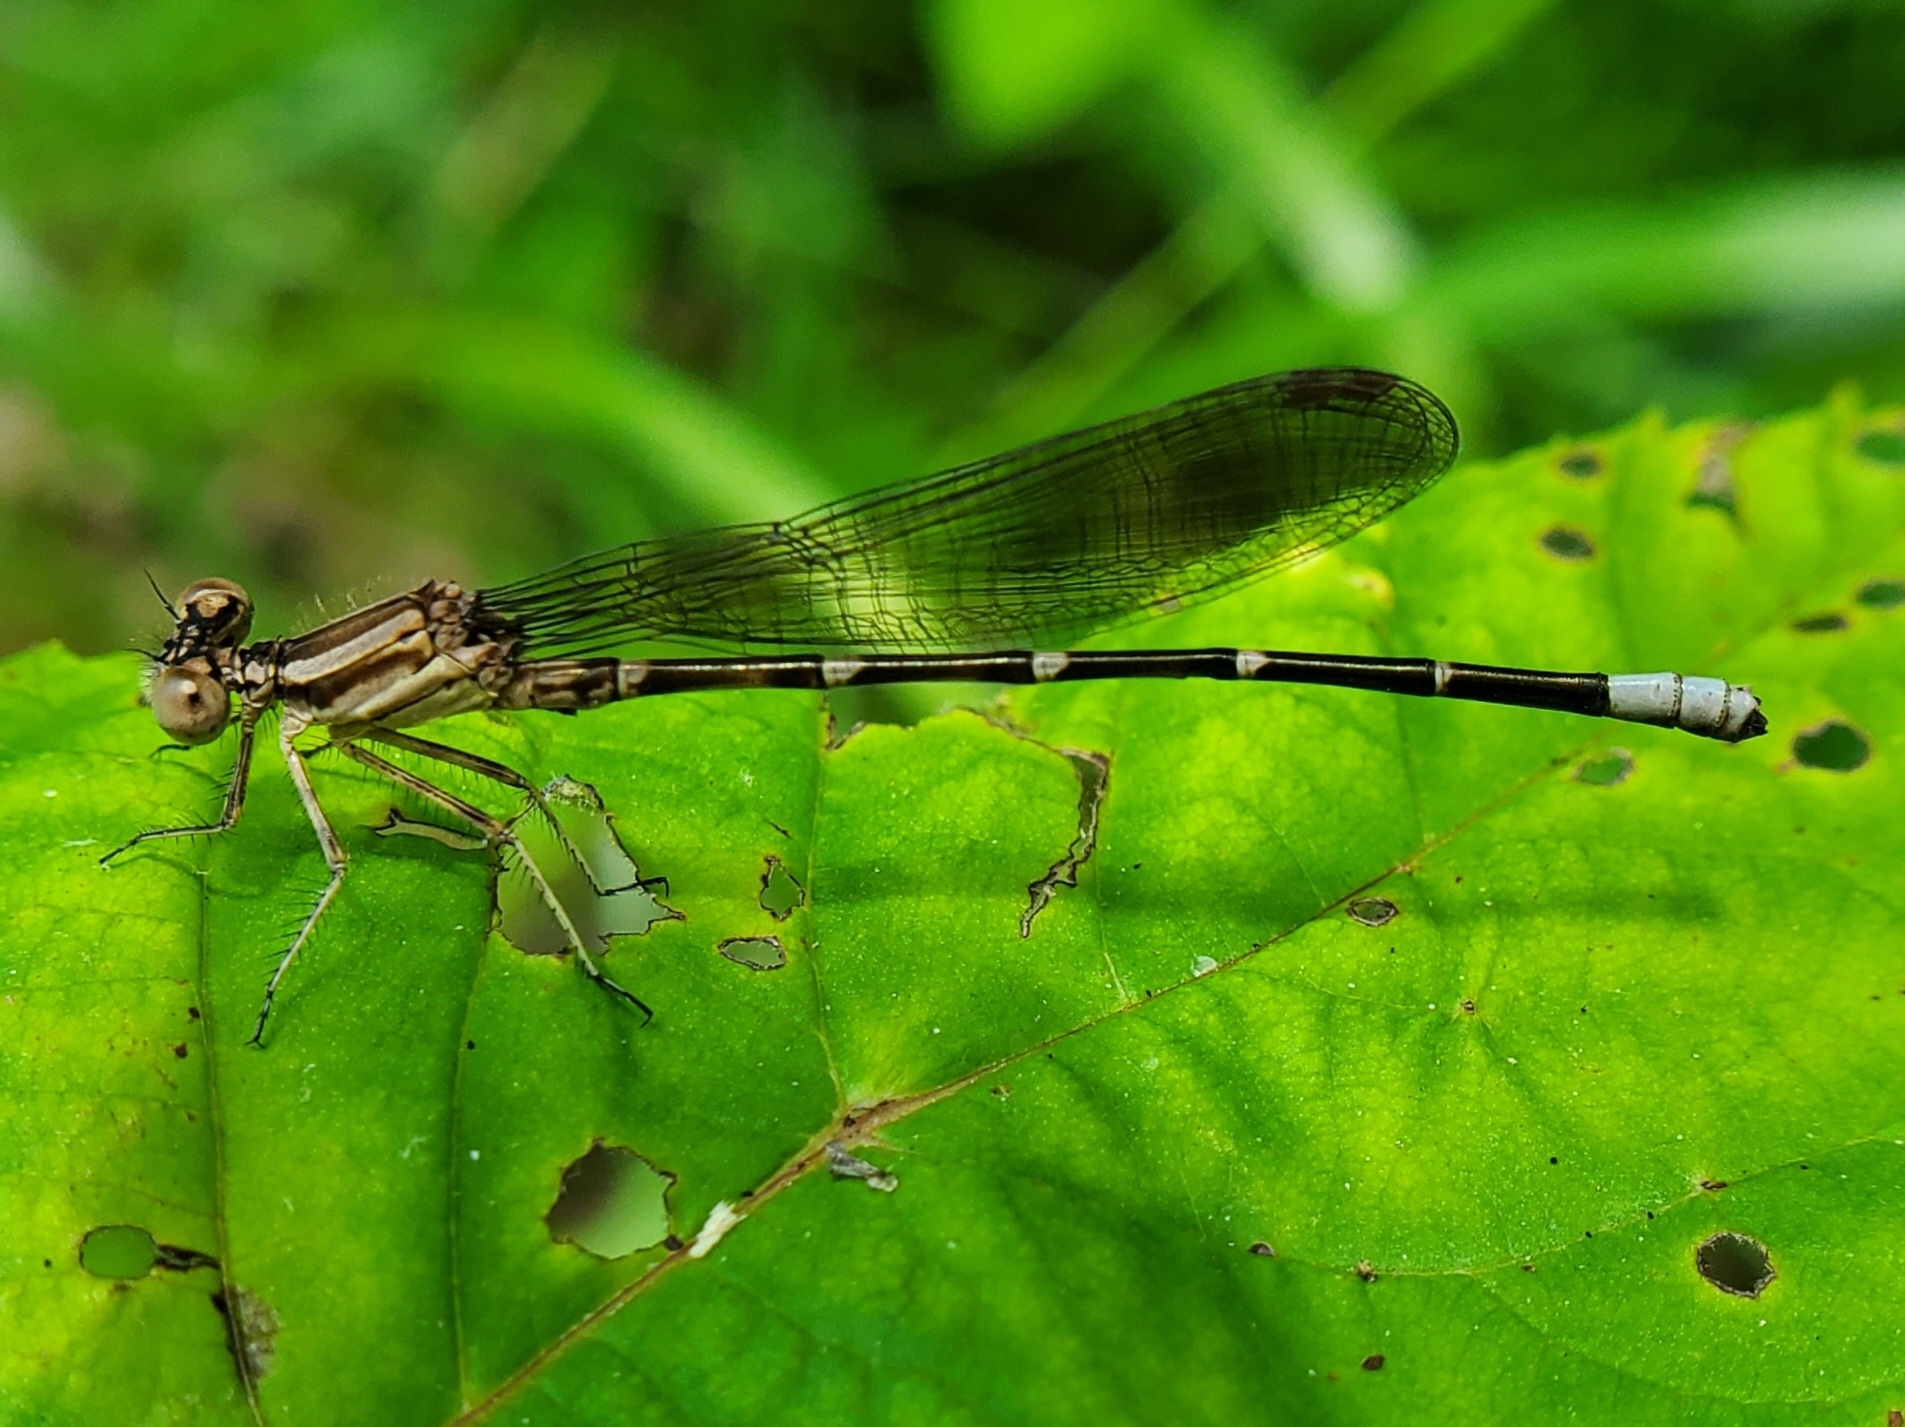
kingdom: Animalia
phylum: Arthropoda
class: Insecta
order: Odonata
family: Coenagrionidae
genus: Argia
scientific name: Argia sedula
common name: Blue-ringed dancer
